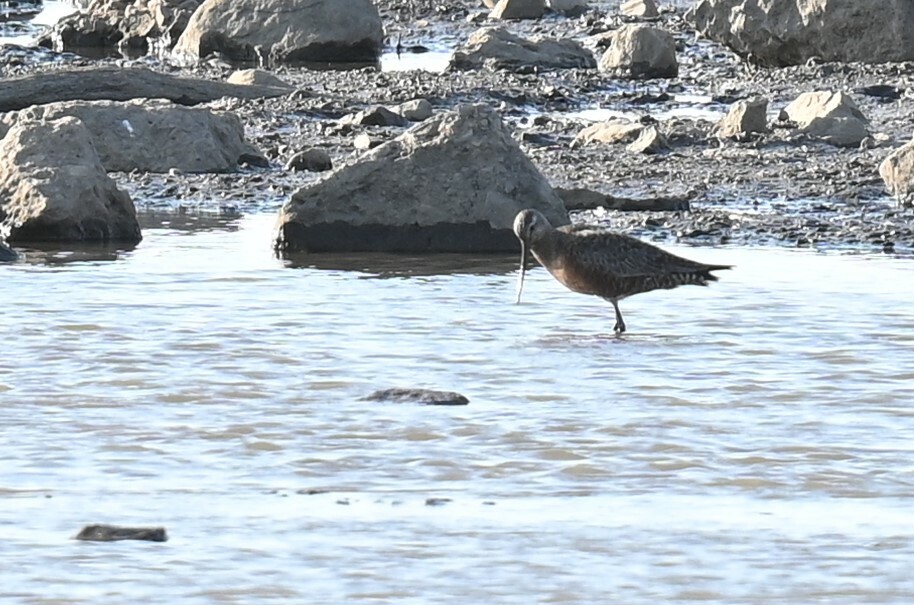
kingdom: Animalia
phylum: Chordata
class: Aves
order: Charadriiformes
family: Scolopacidae
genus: Limosa
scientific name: Limosa haemastica
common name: Hudsonian godwit
